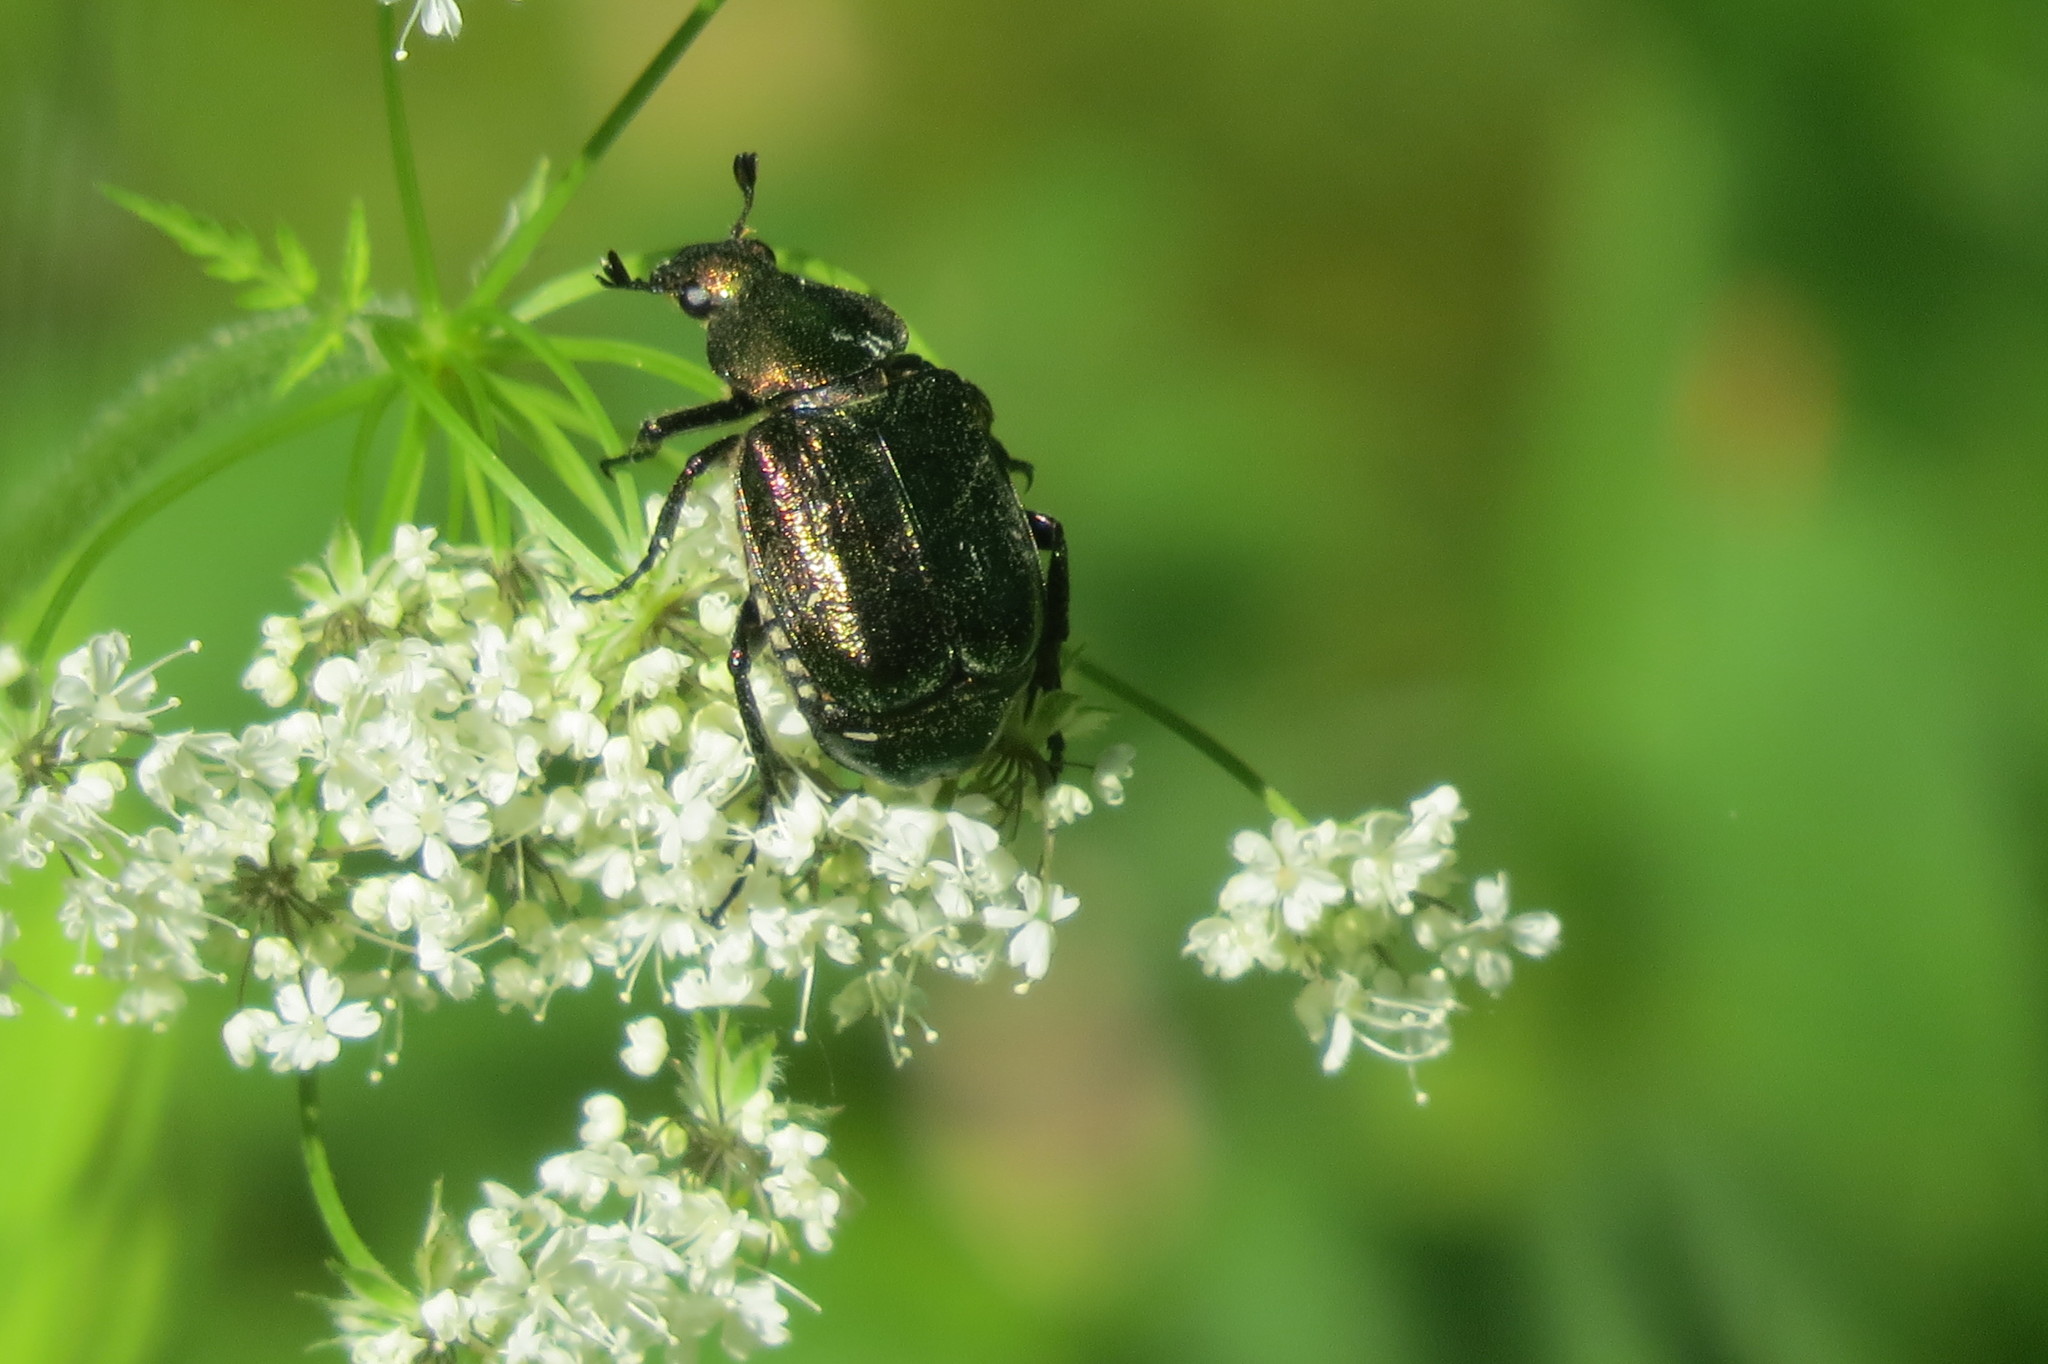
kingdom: Animalia
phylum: Arthropoda
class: Insecta
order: Coleoptera
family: Scarabaeidae
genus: Gnorimus
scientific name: Gnorimus nobilis
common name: Noble chafer
